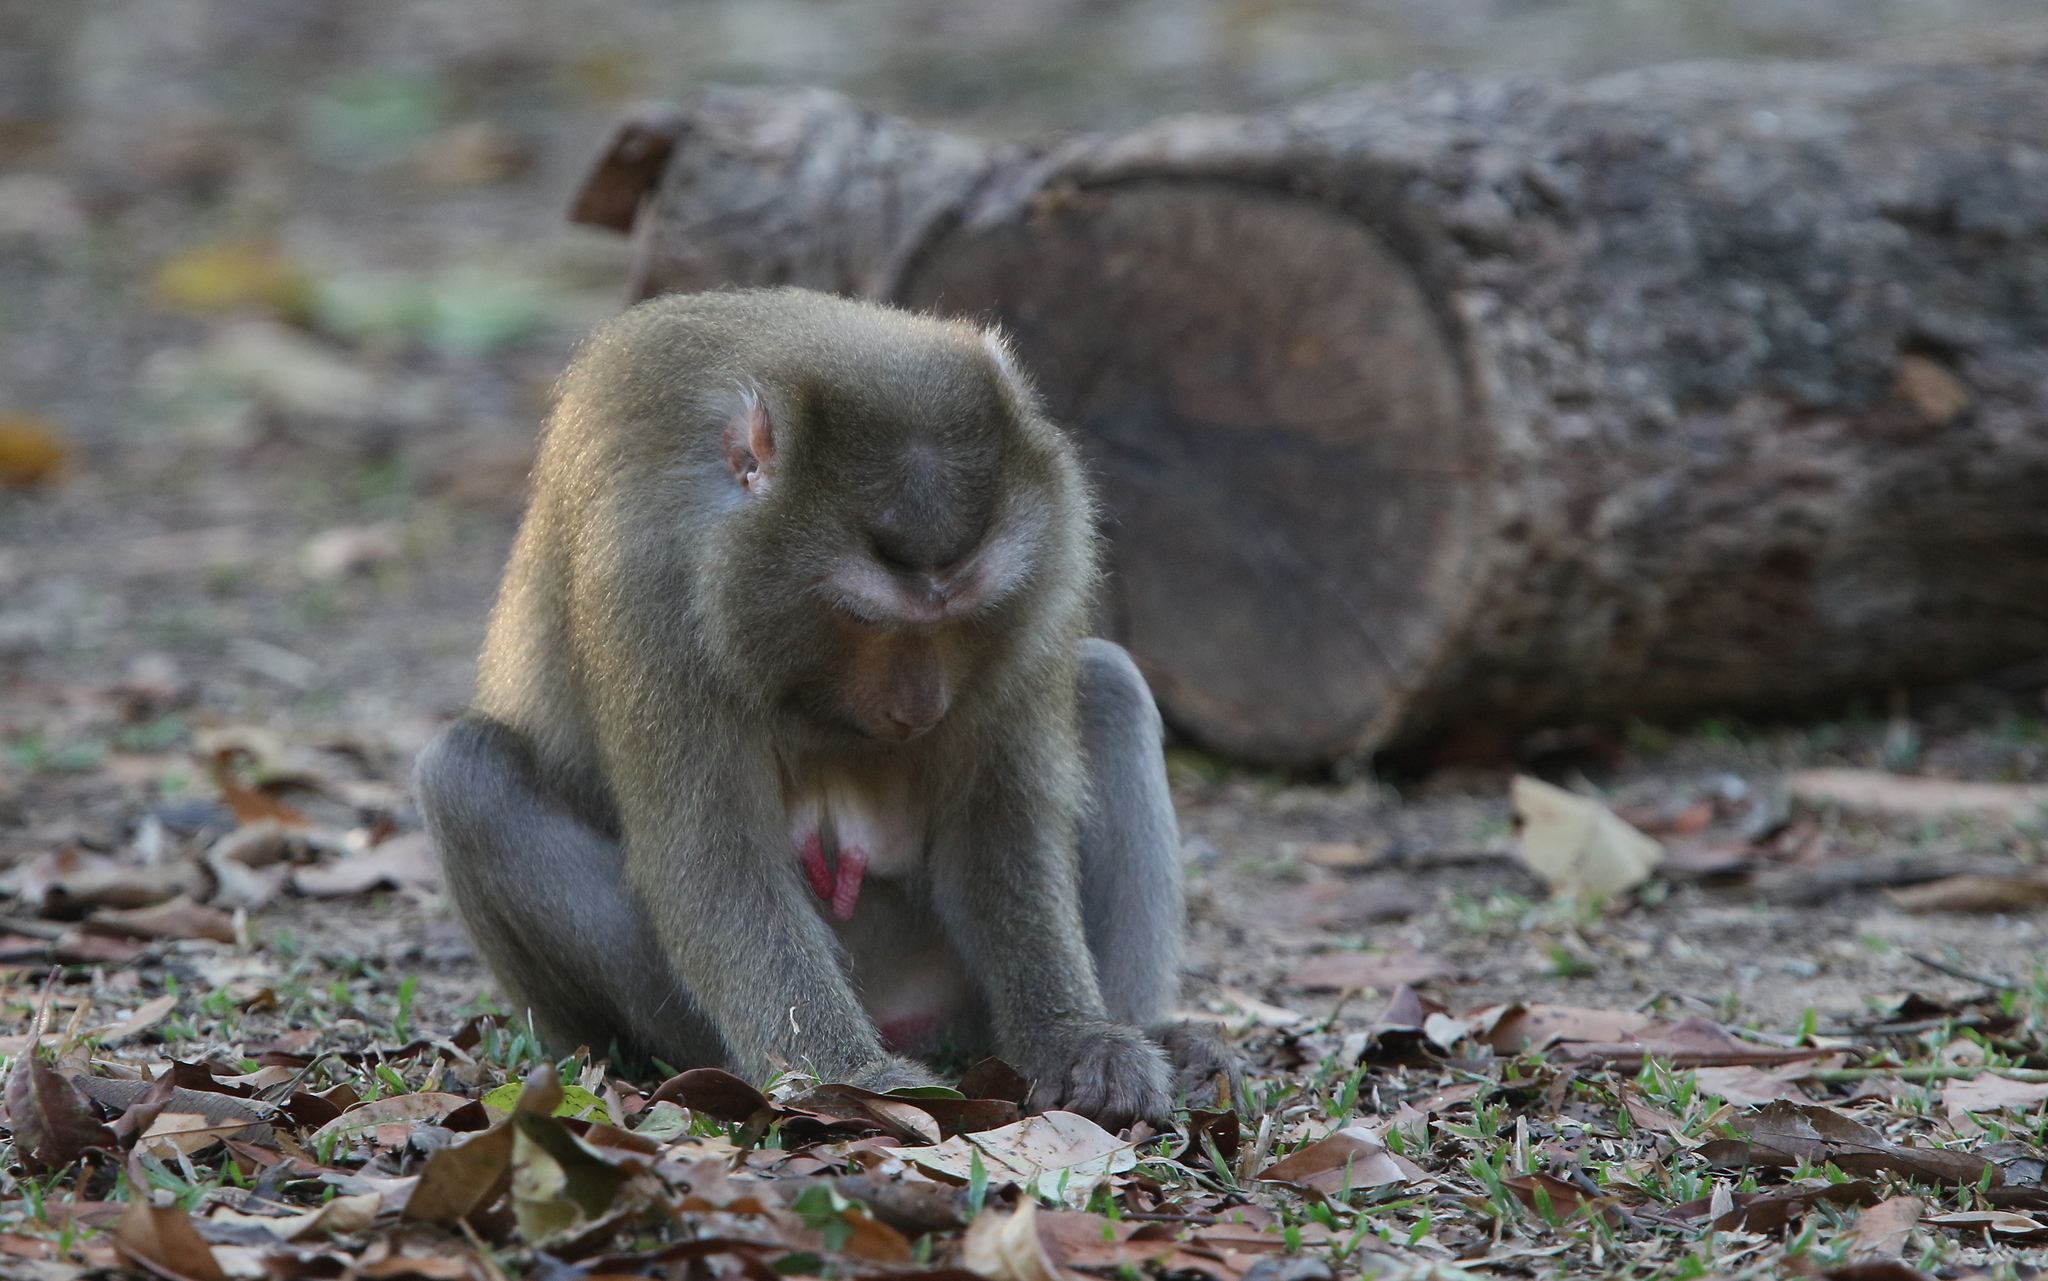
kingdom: Animalia
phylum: Chordata
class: Mammalia
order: Primates
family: Cercopithecidae
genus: Macaca
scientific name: Macaca leonina
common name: Northern pig-tailed macaque
